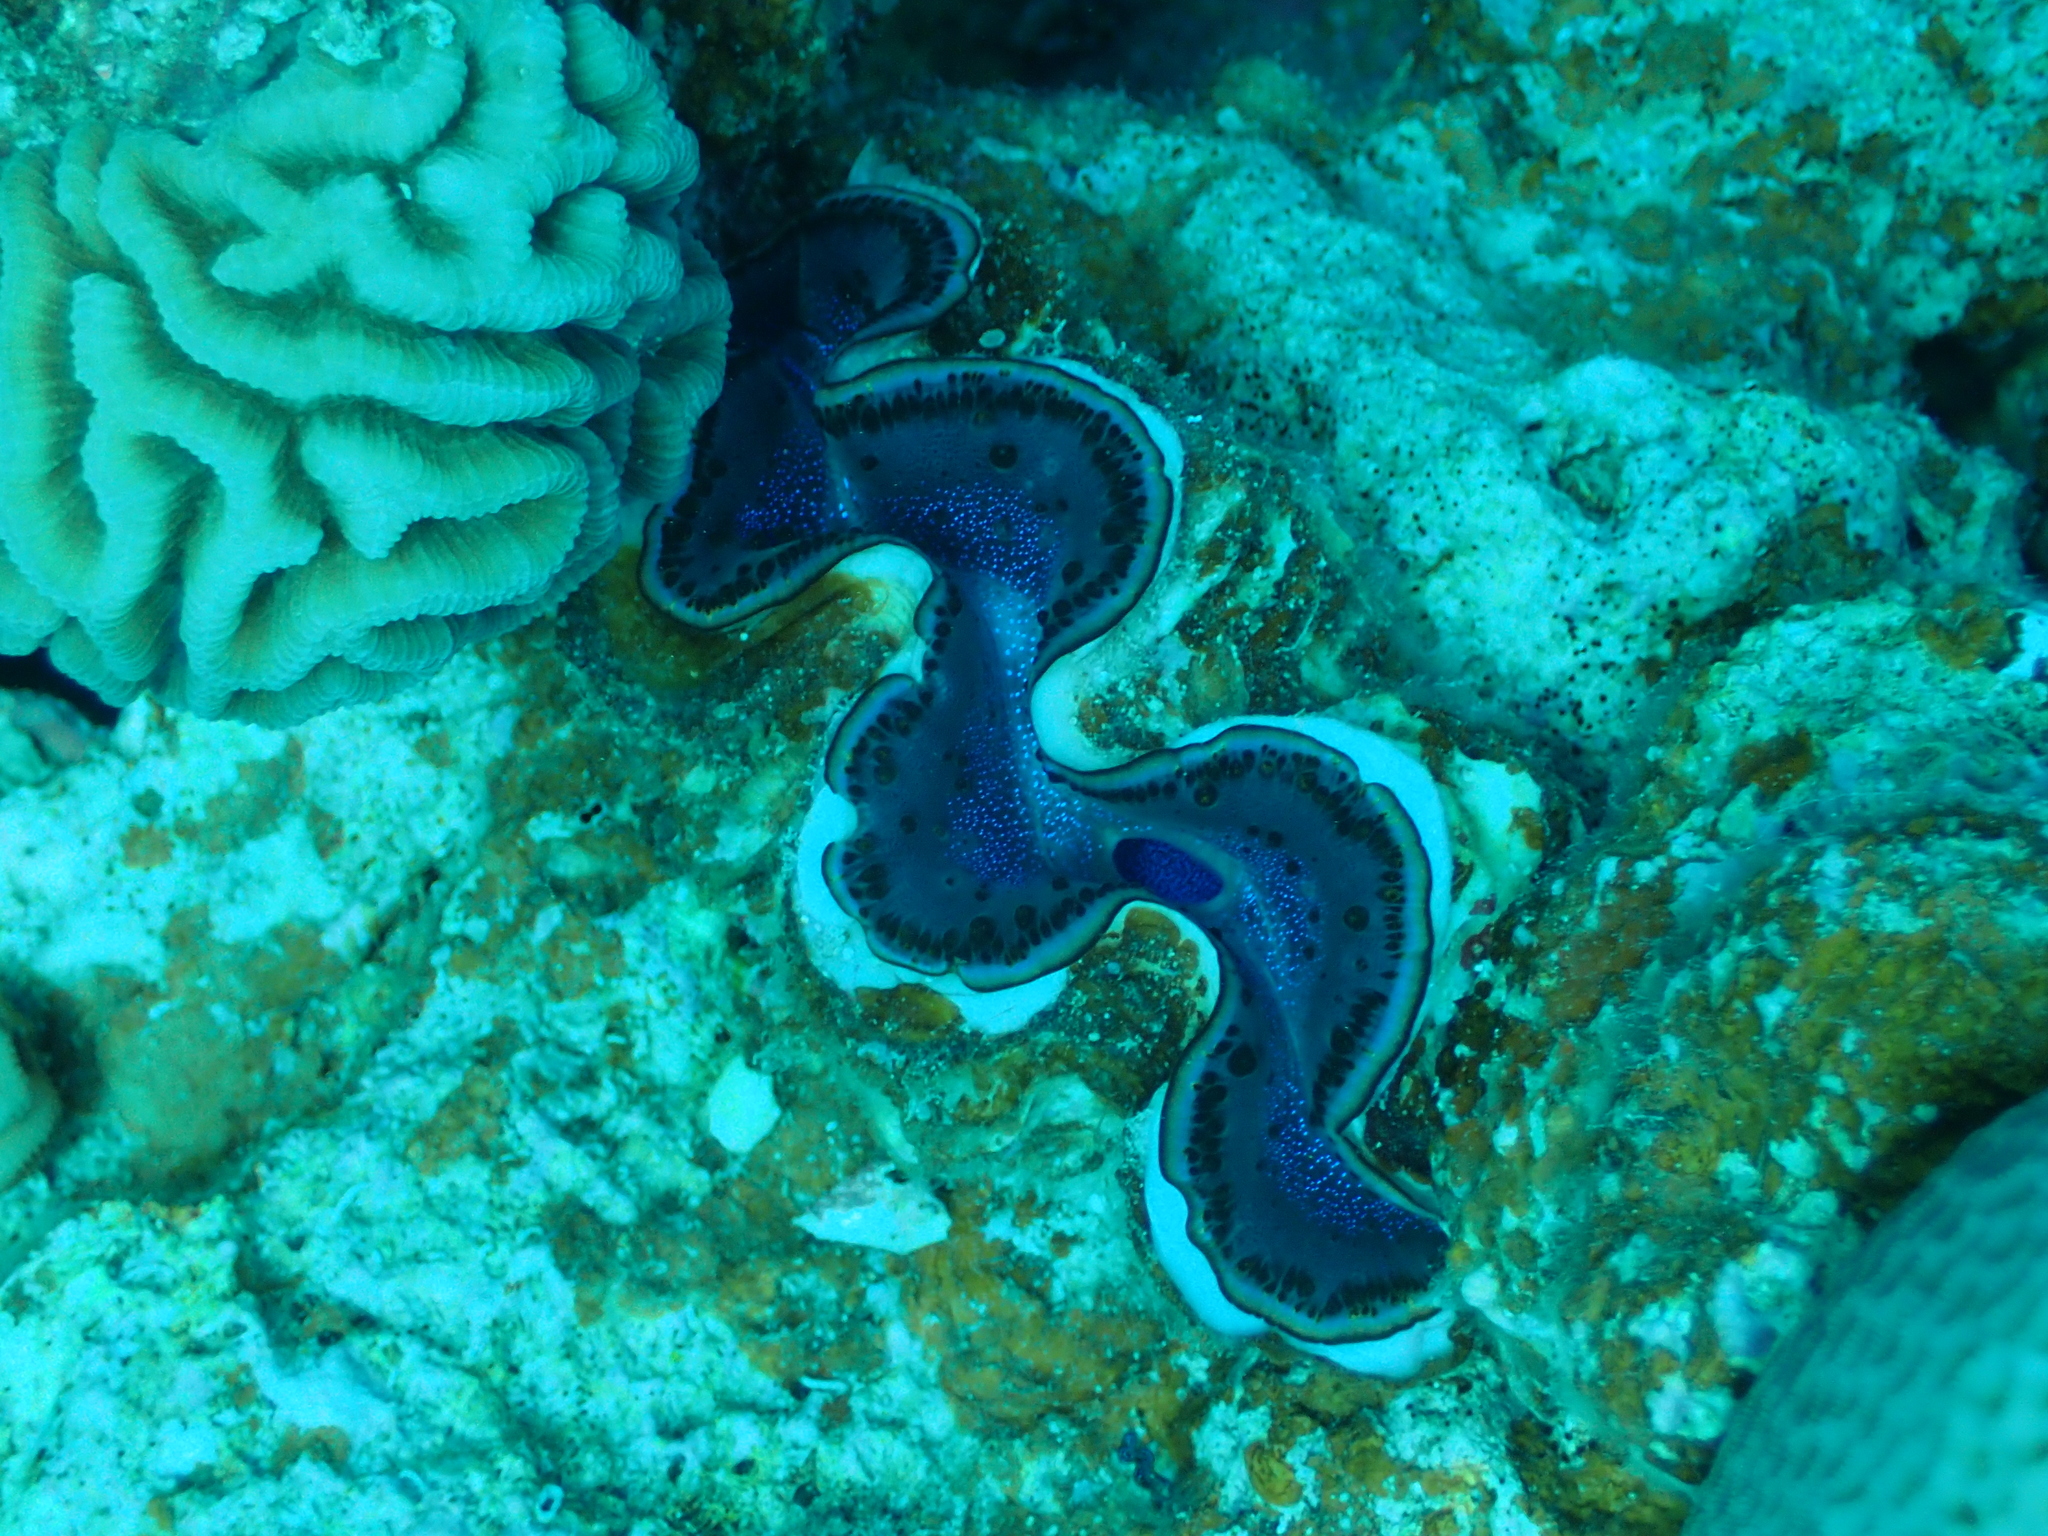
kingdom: Animalia
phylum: Mollusca
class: Bivalvia
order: Cardiida
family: Cardiidae
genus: Tridacna
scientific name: Tridacna maxima
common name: Small giant clam
